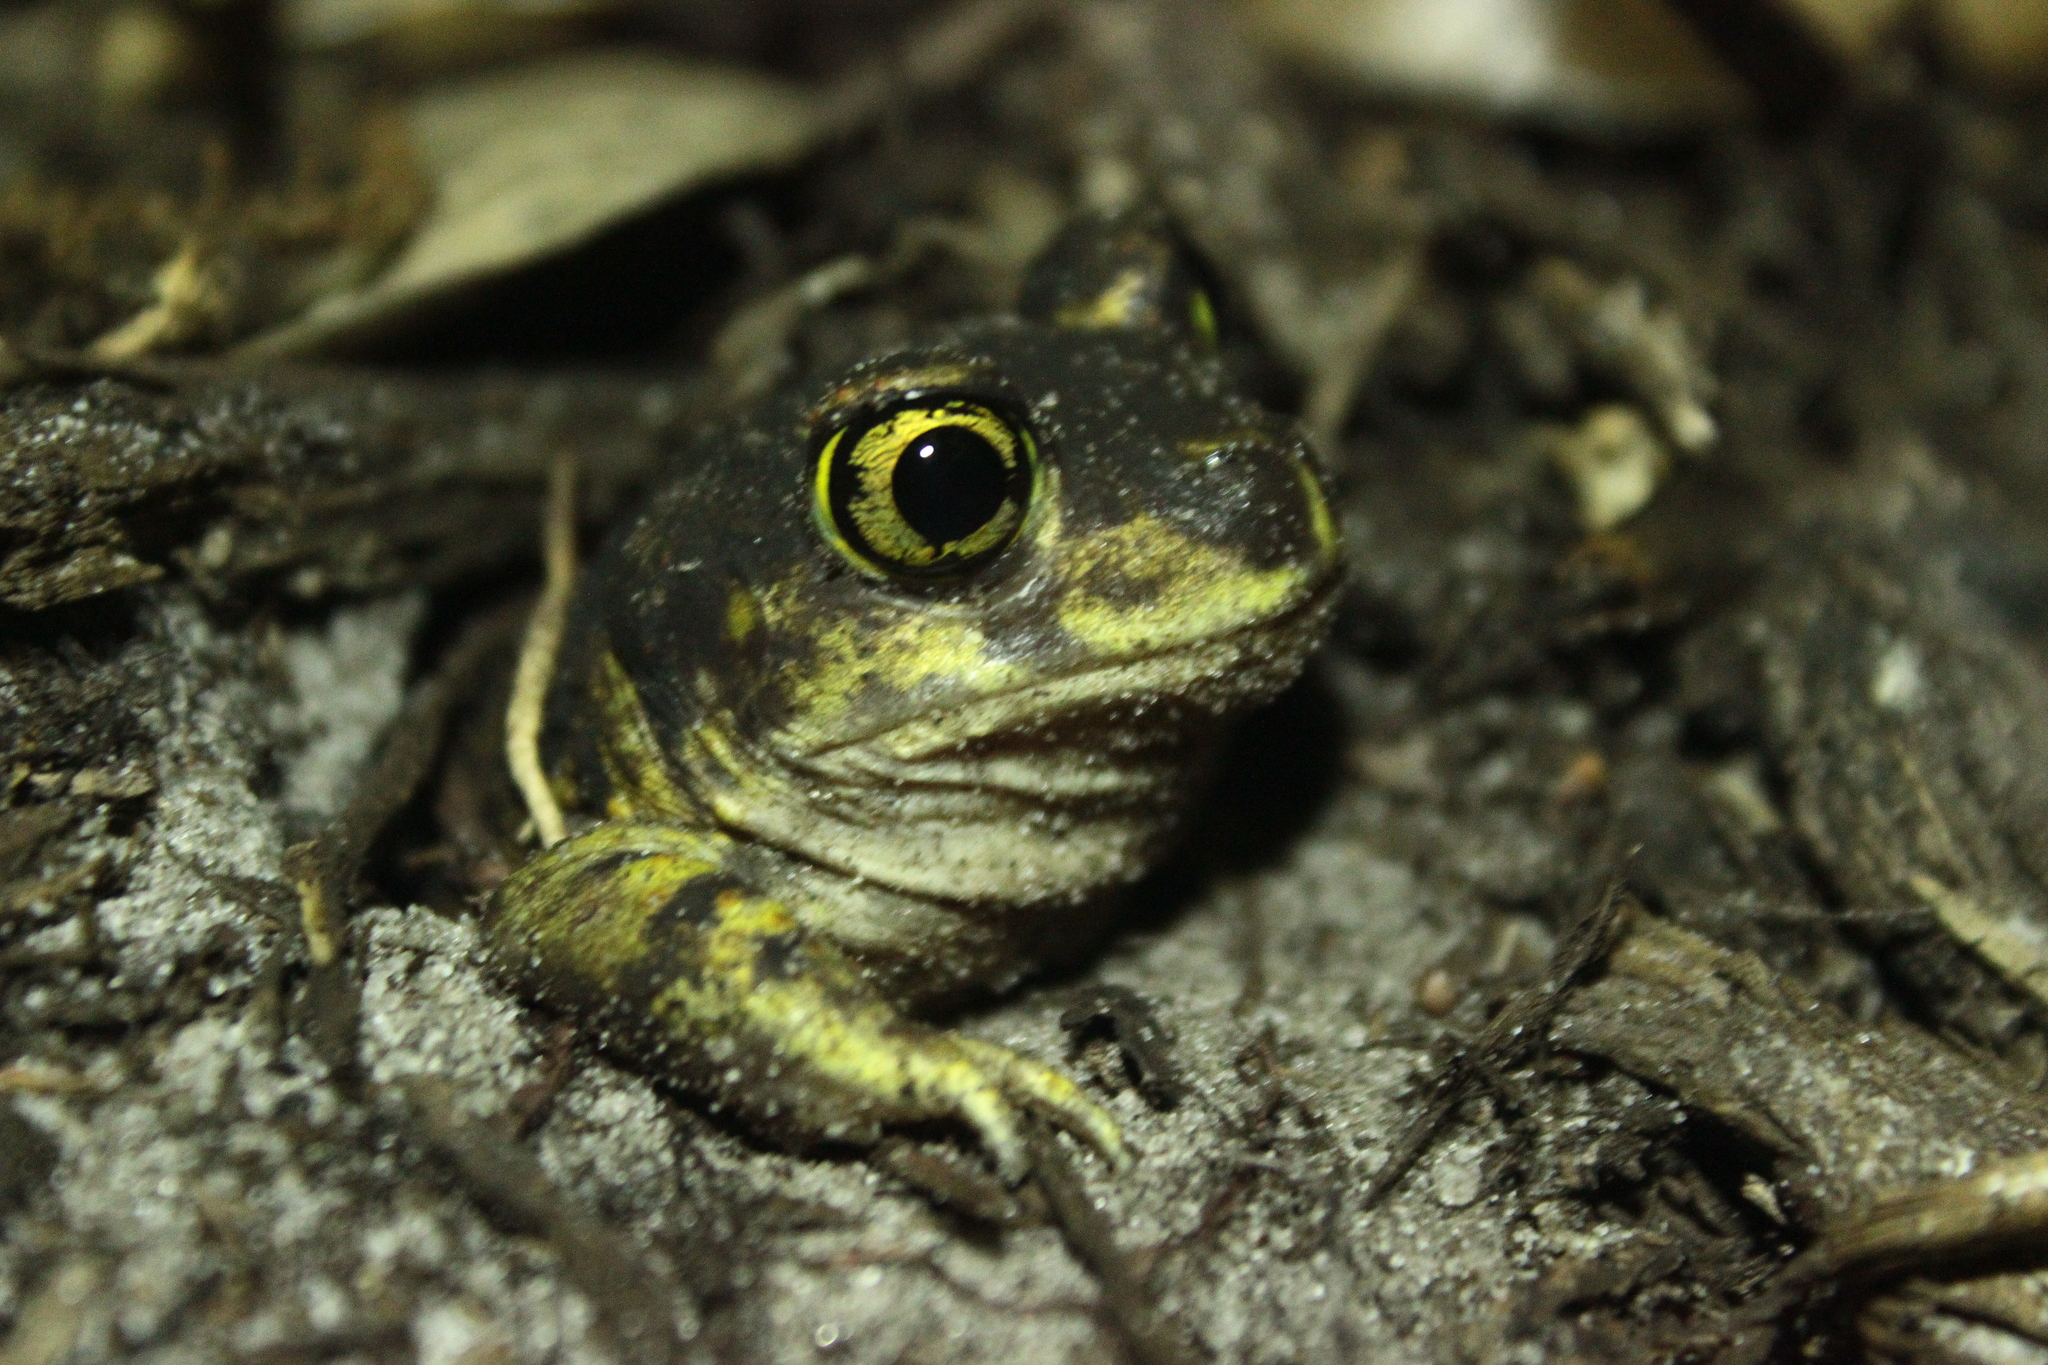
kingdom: Animalia
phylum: Chordata
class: Amphibia
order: Anura
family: Scaphiopodidae
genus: Scaphiopus
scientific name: Scaphiopus holbrookii
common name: Eastern spadefoot toad
